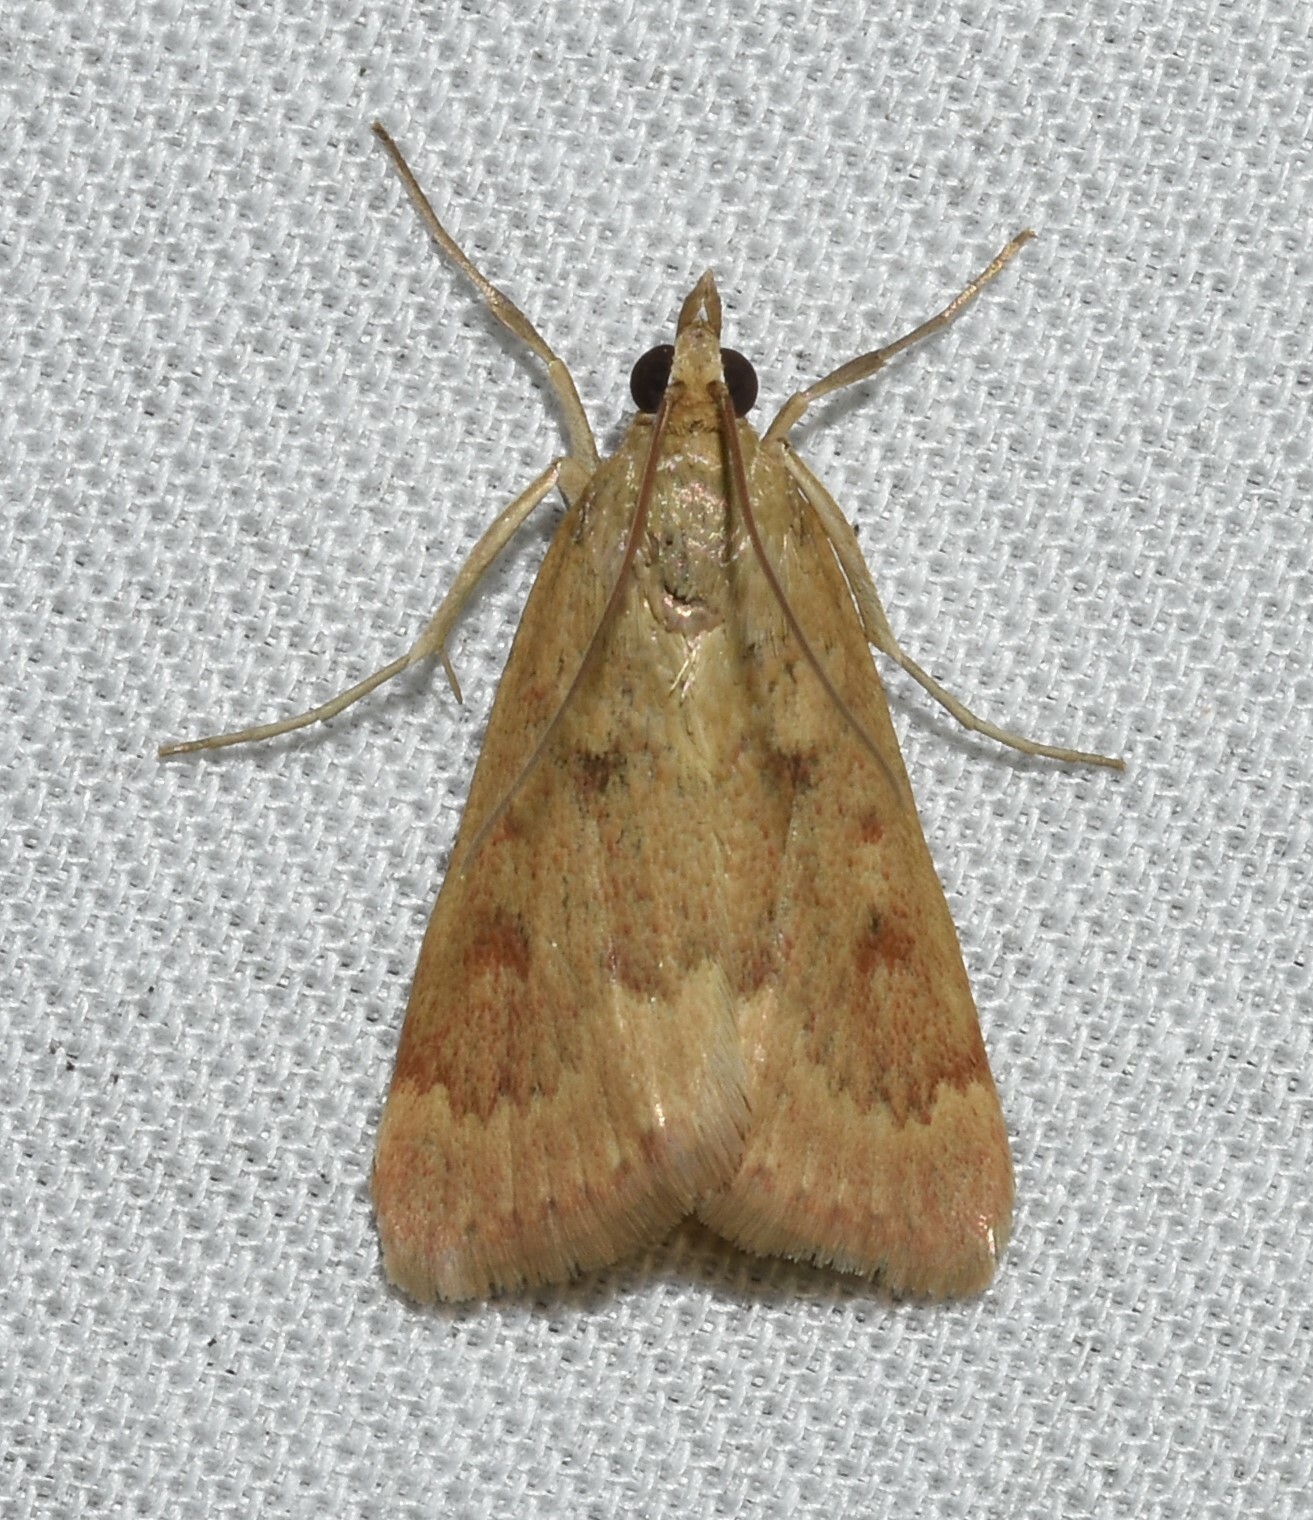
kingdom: Animalia
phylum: Arthropoda
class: Insecta
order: Lepidoptera
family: Crambidae
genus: Achyra
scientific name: Achyra rantalis
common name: Garden webworm
